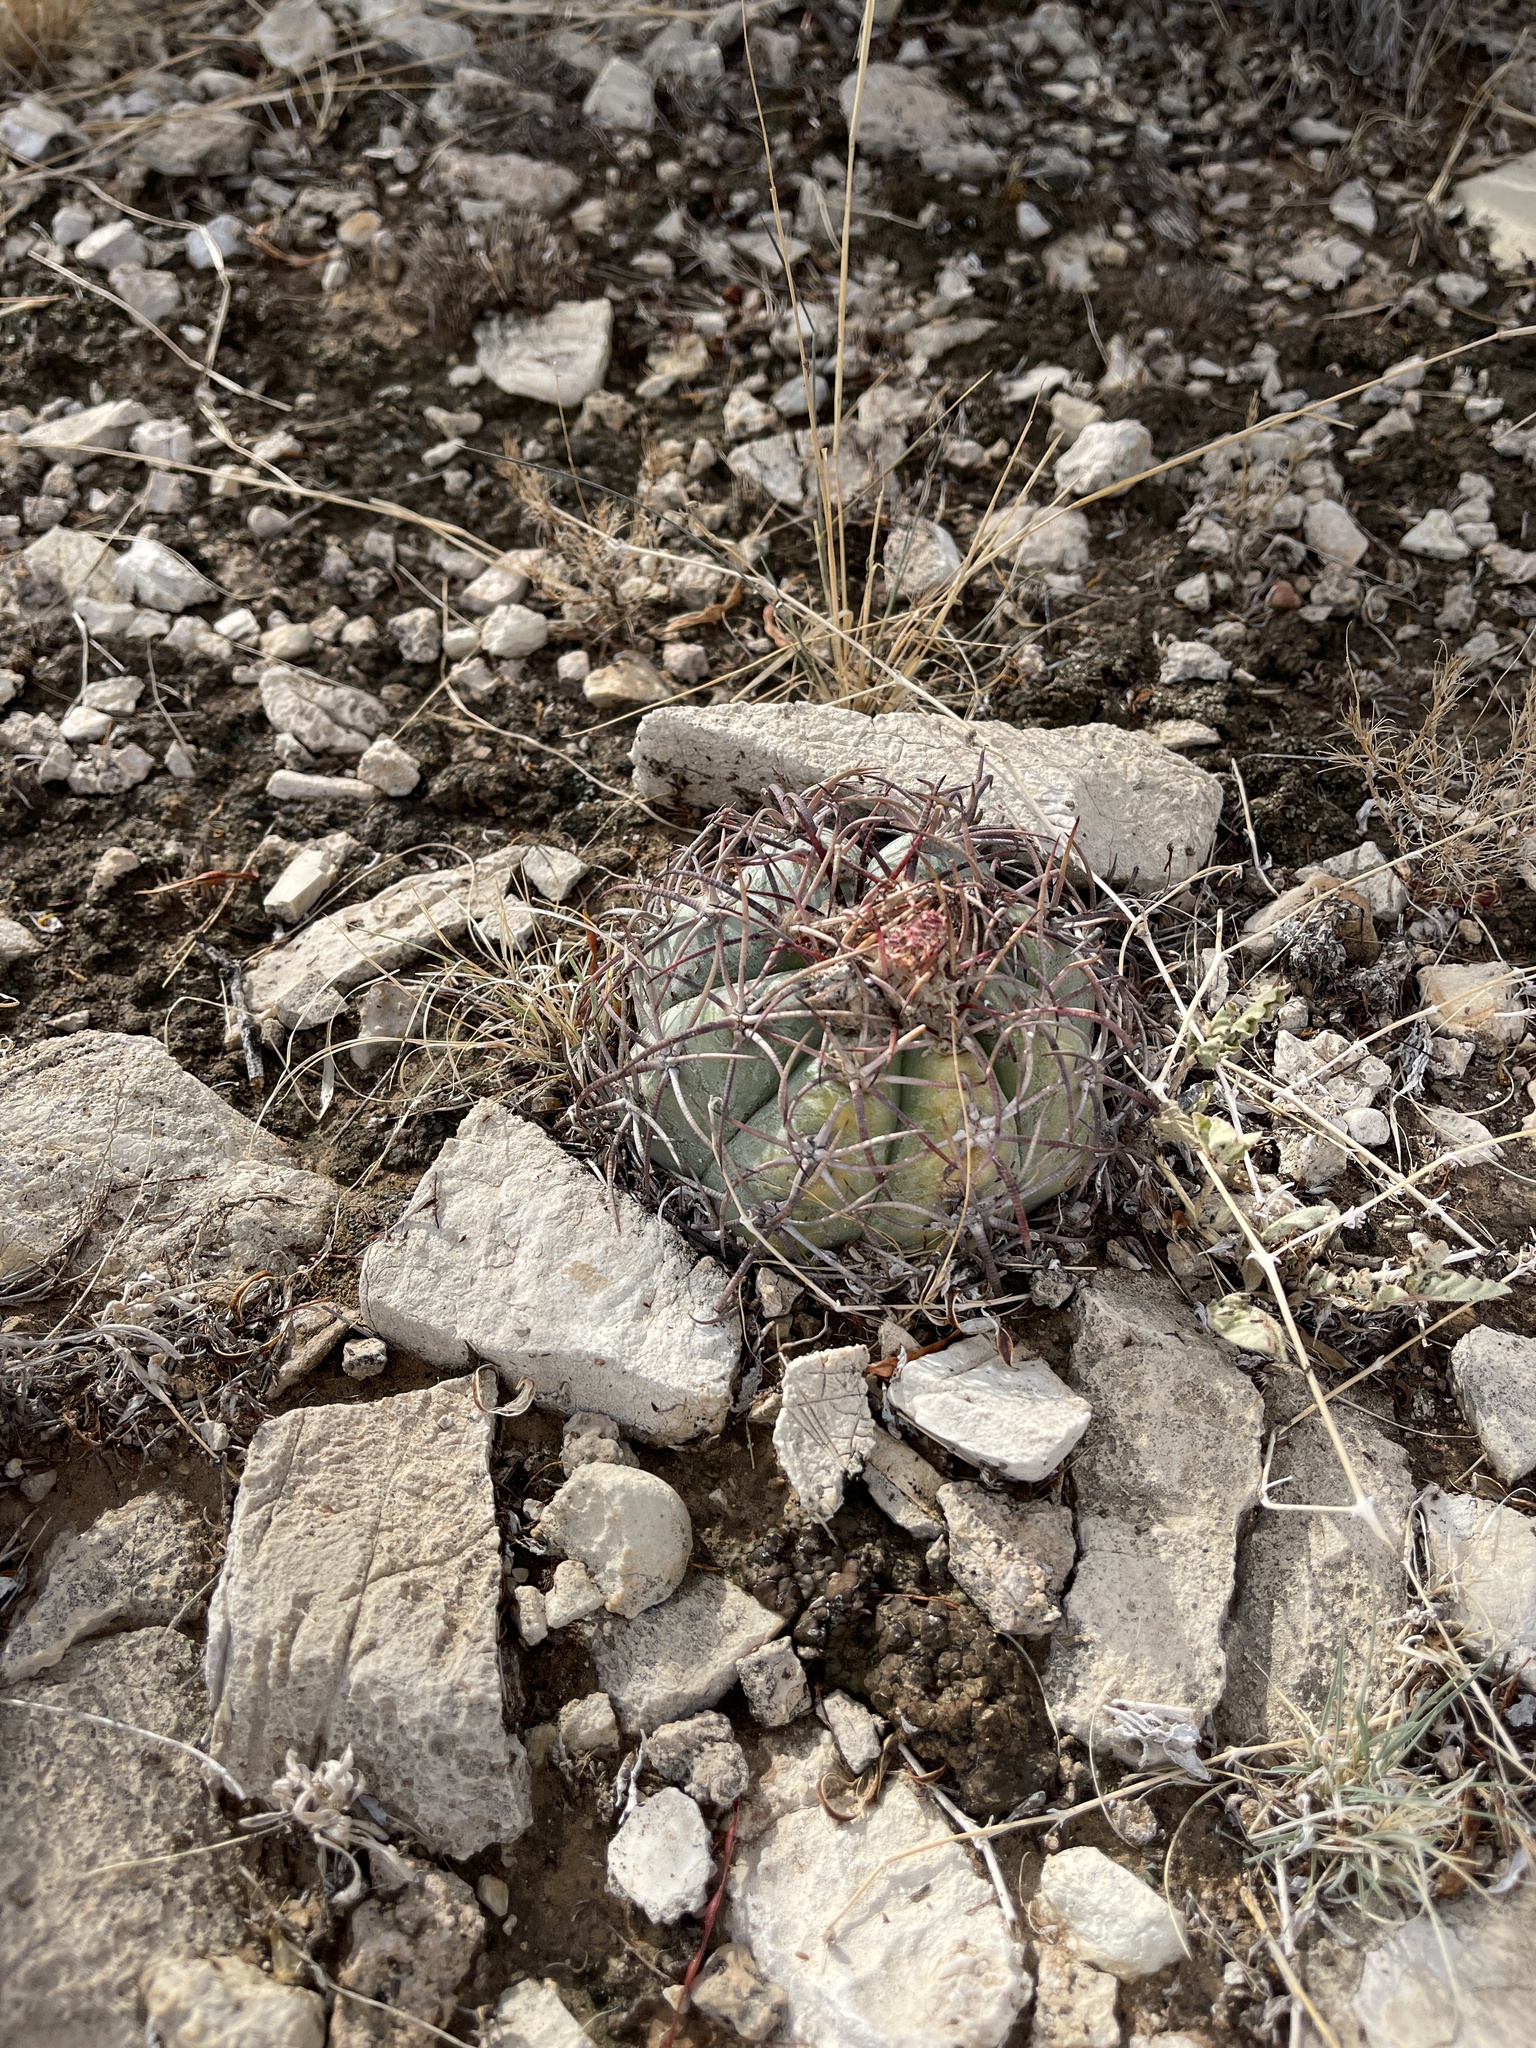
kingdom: Plantae
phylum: Tracheophyta
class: Magnoliopsida
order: Caryophyllales
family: Cactaceae
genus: Echinocactus
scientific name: Echinocactus horizonthalonius
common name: Devilshead
